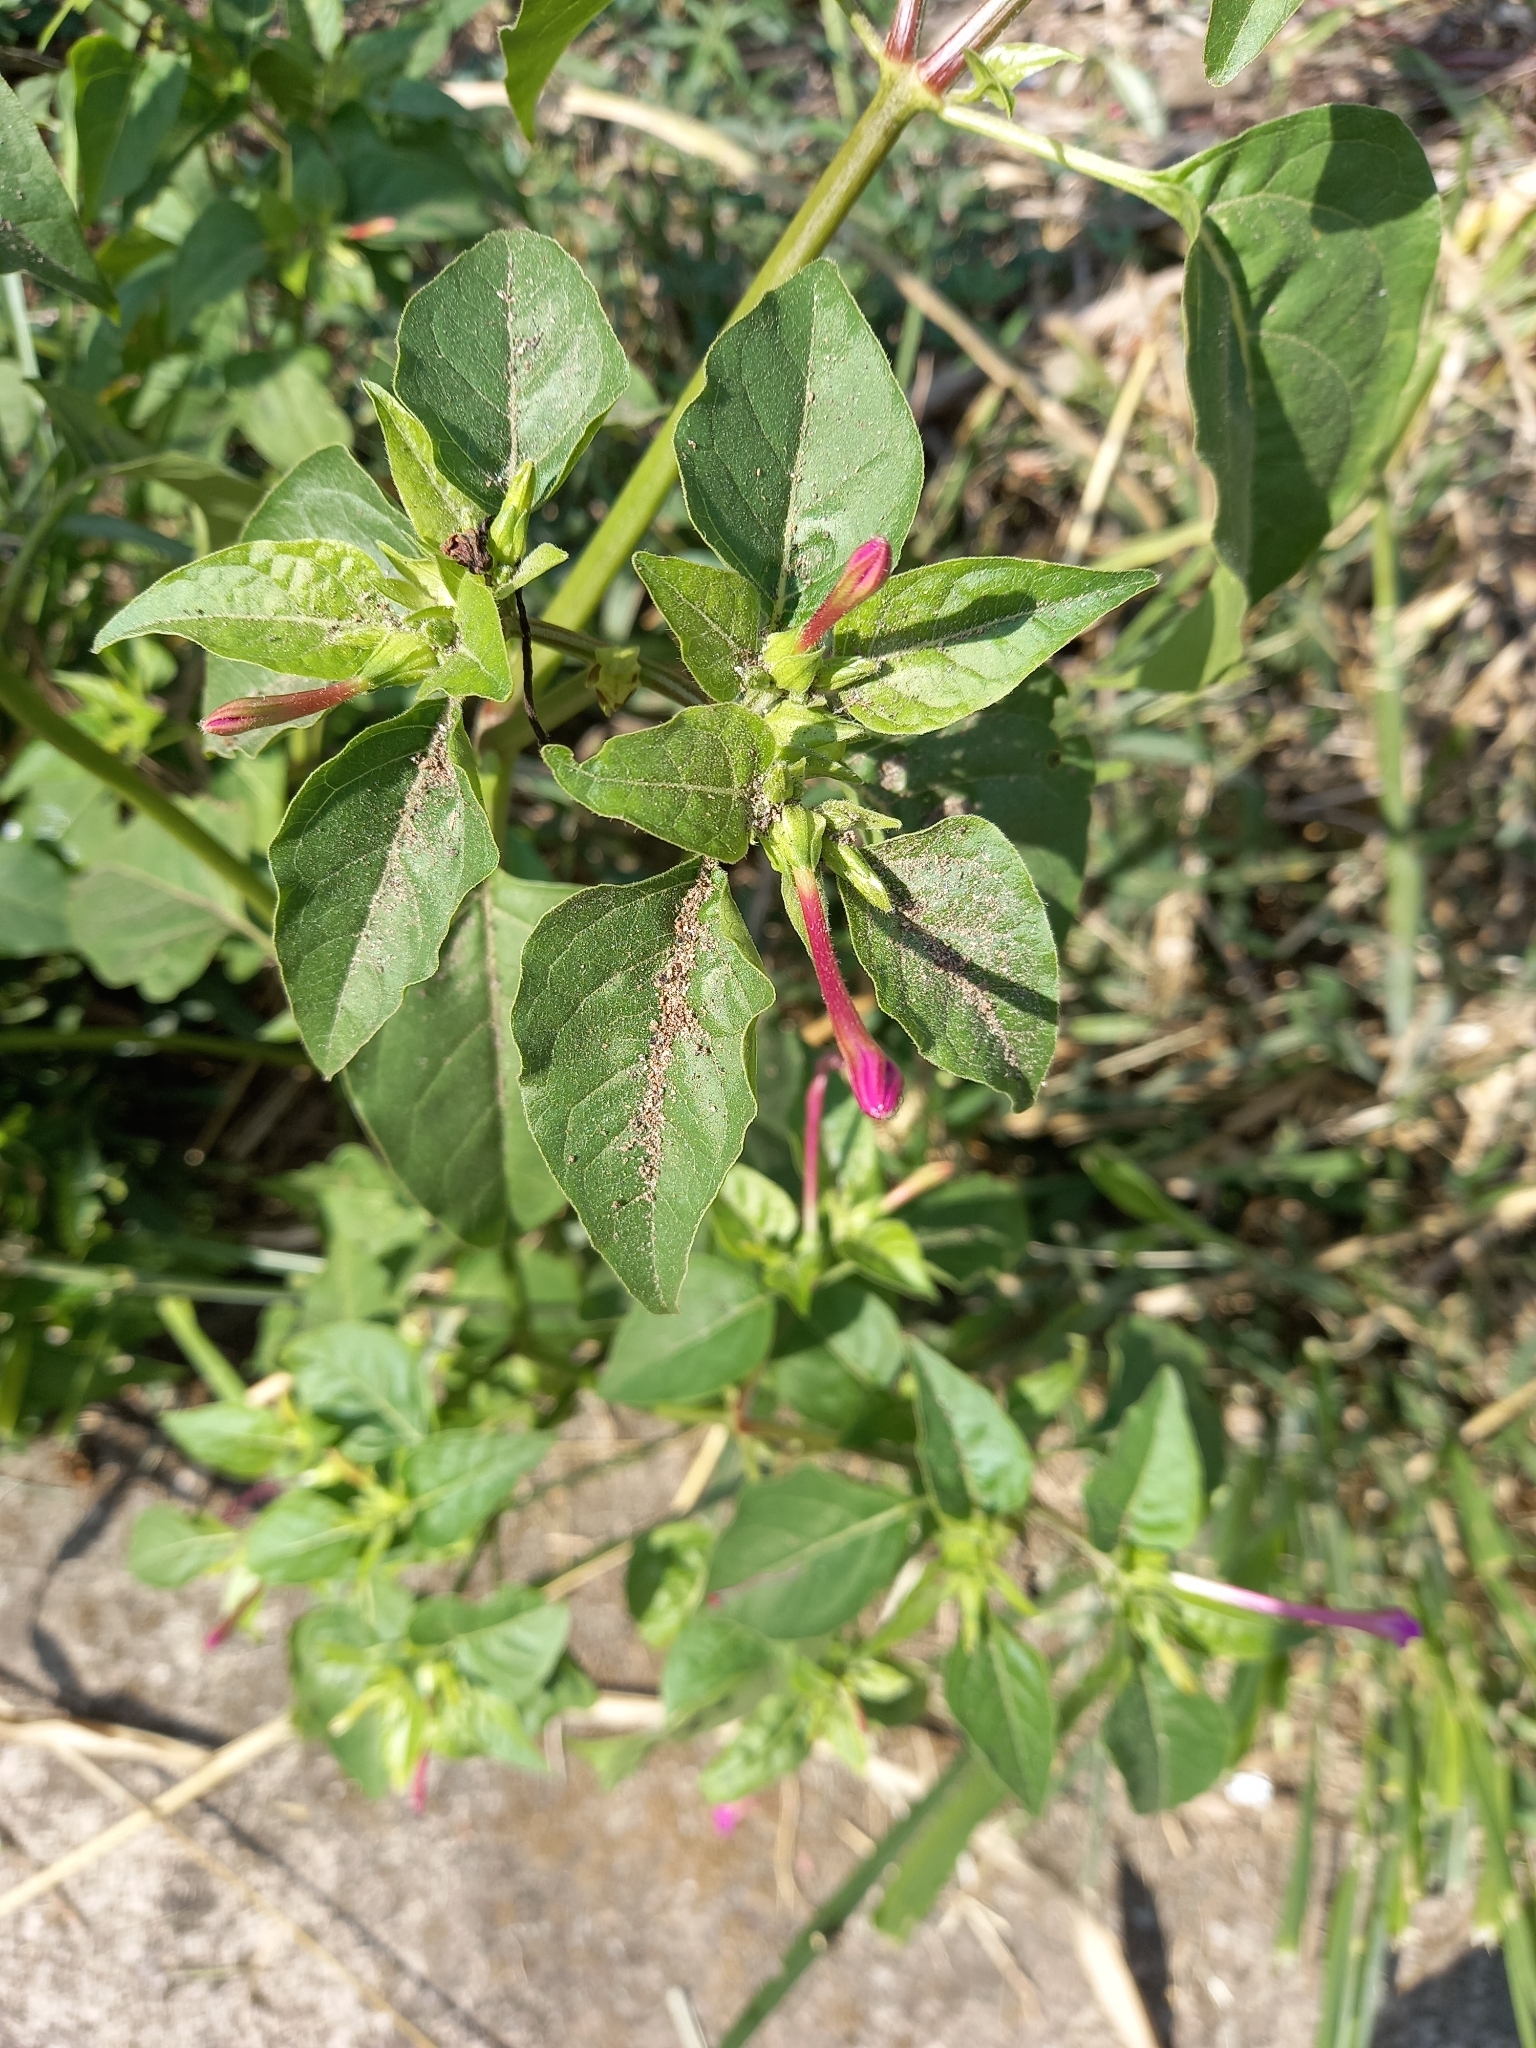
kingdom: Plantae
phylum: Tracheophyta
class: Magnoliopsida
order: Caryophyllales
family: Nyctaginaceae
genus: Mirabilis
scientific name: Mirabilis jalapa
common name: Marvel-of-peru
